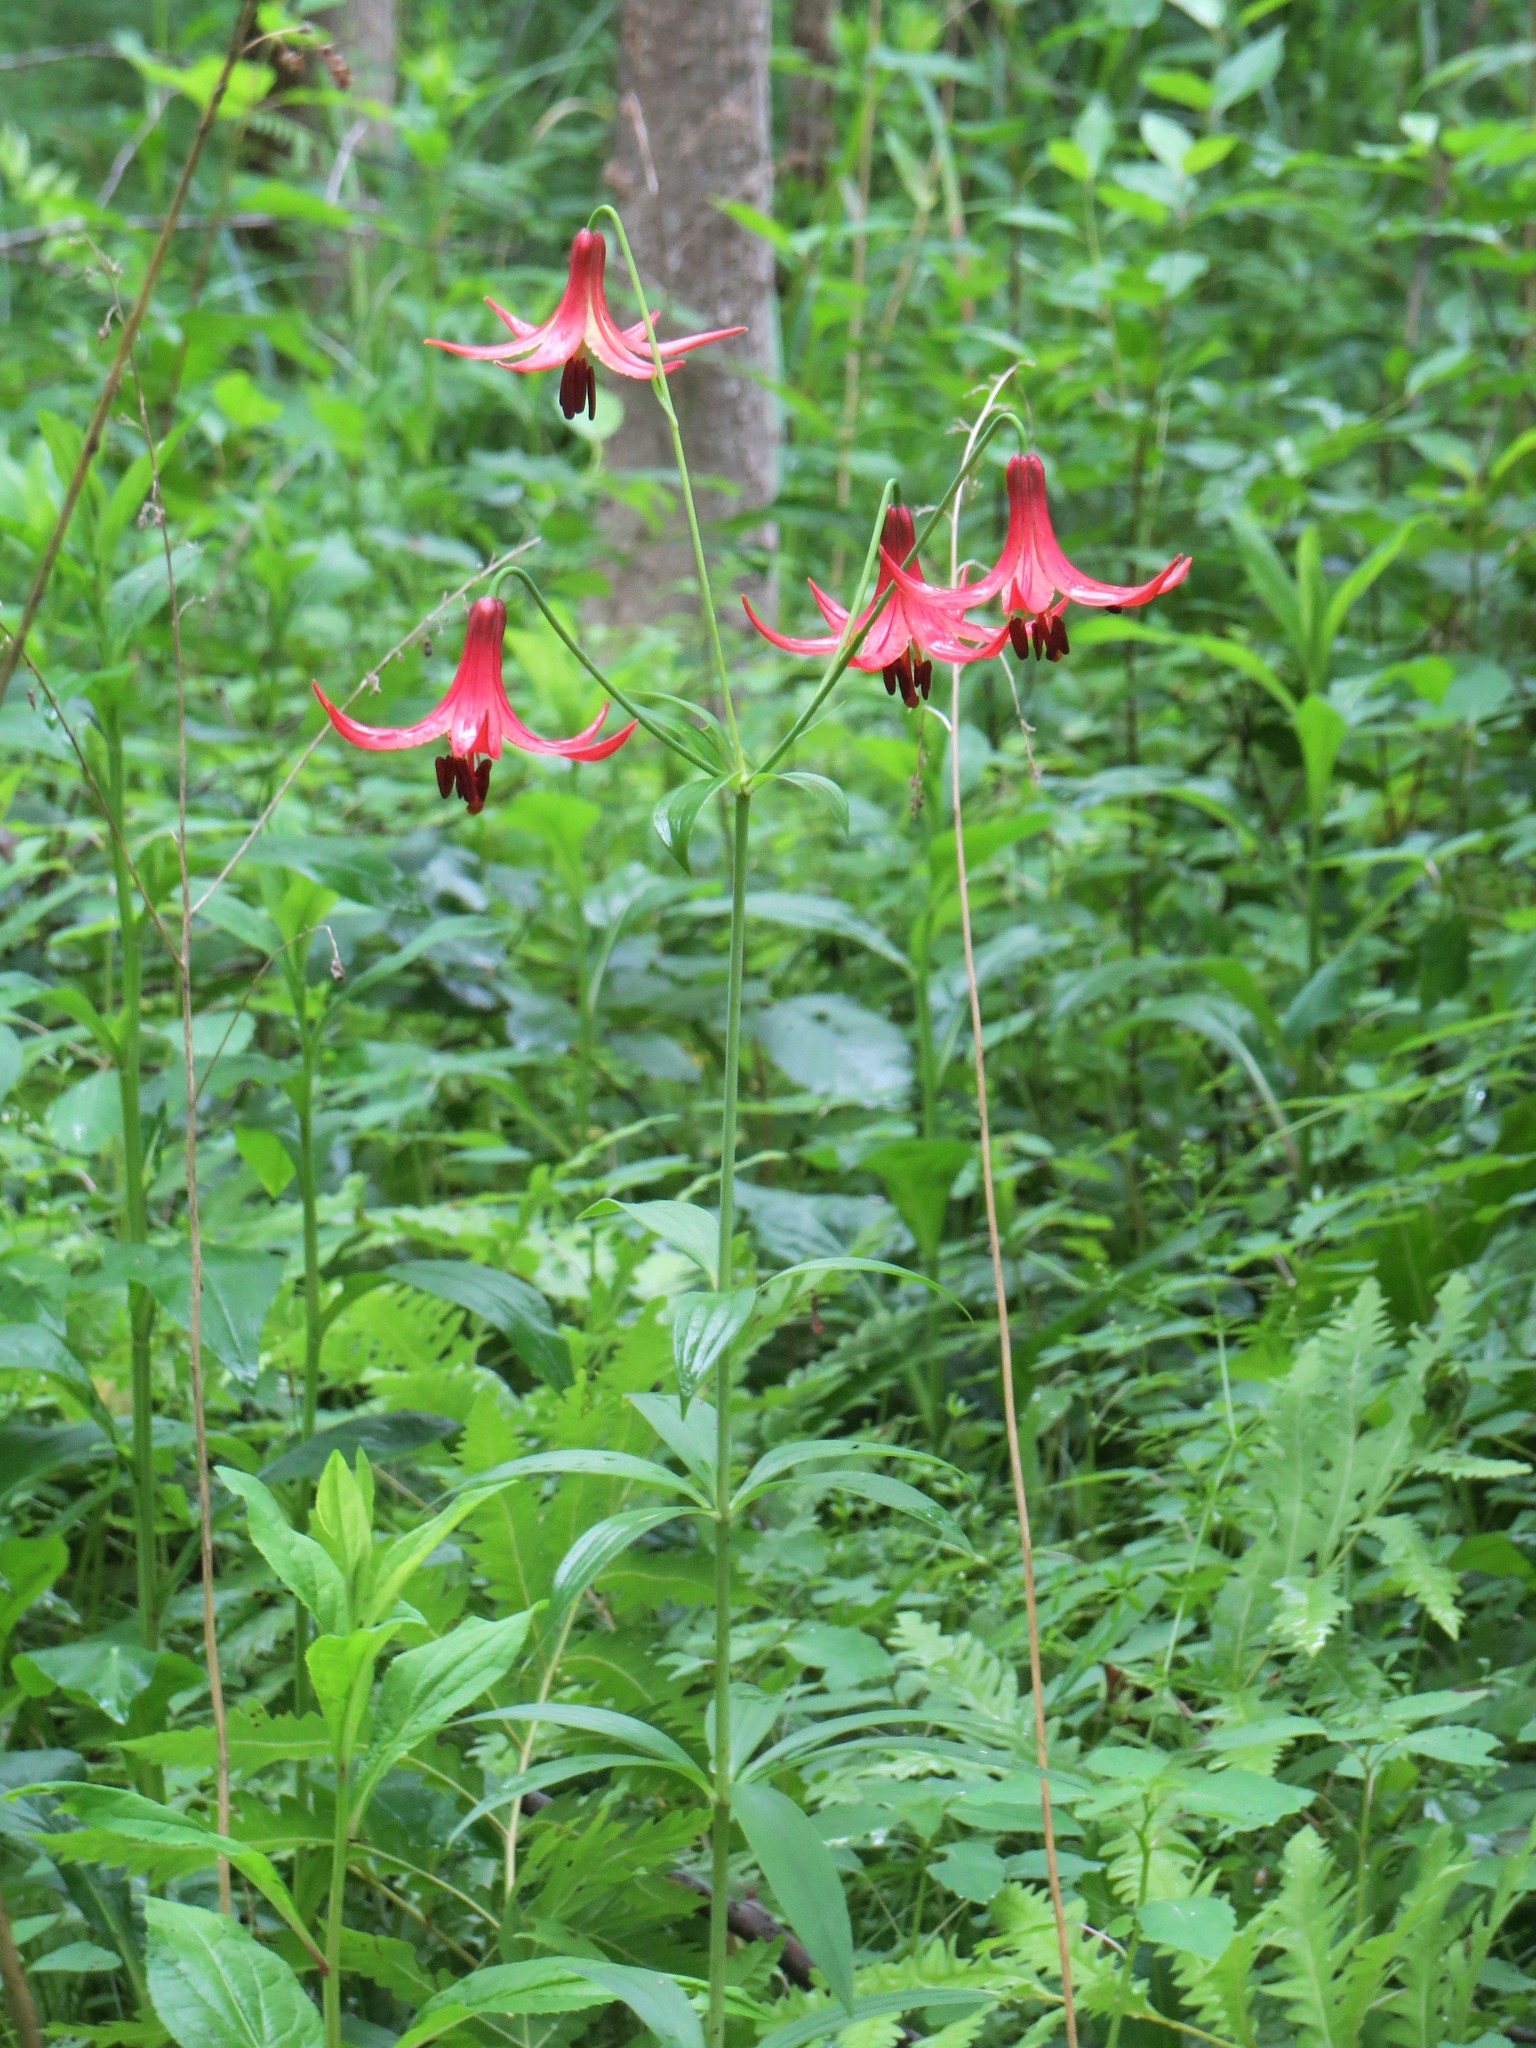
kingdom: Plantae
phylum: Tracheophyta
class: Liliopsida
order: Liliales
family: Liliaceae
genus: Lilium
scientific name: Lilium canadense
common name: Canada lily
